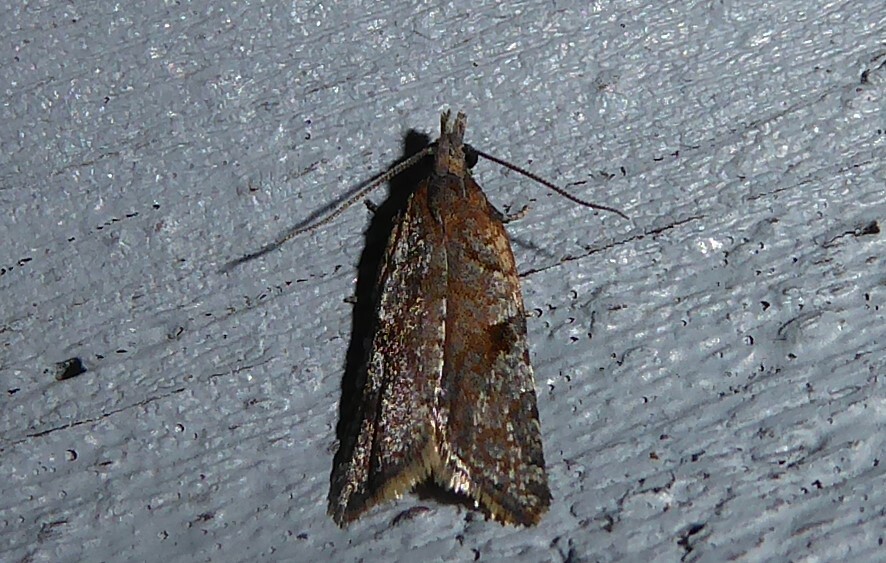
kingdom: Animalia
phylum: Arthropoda
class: Insecta
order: Lepidoptera
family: Tortricidae
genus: Capua
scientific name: Capua semiferana
